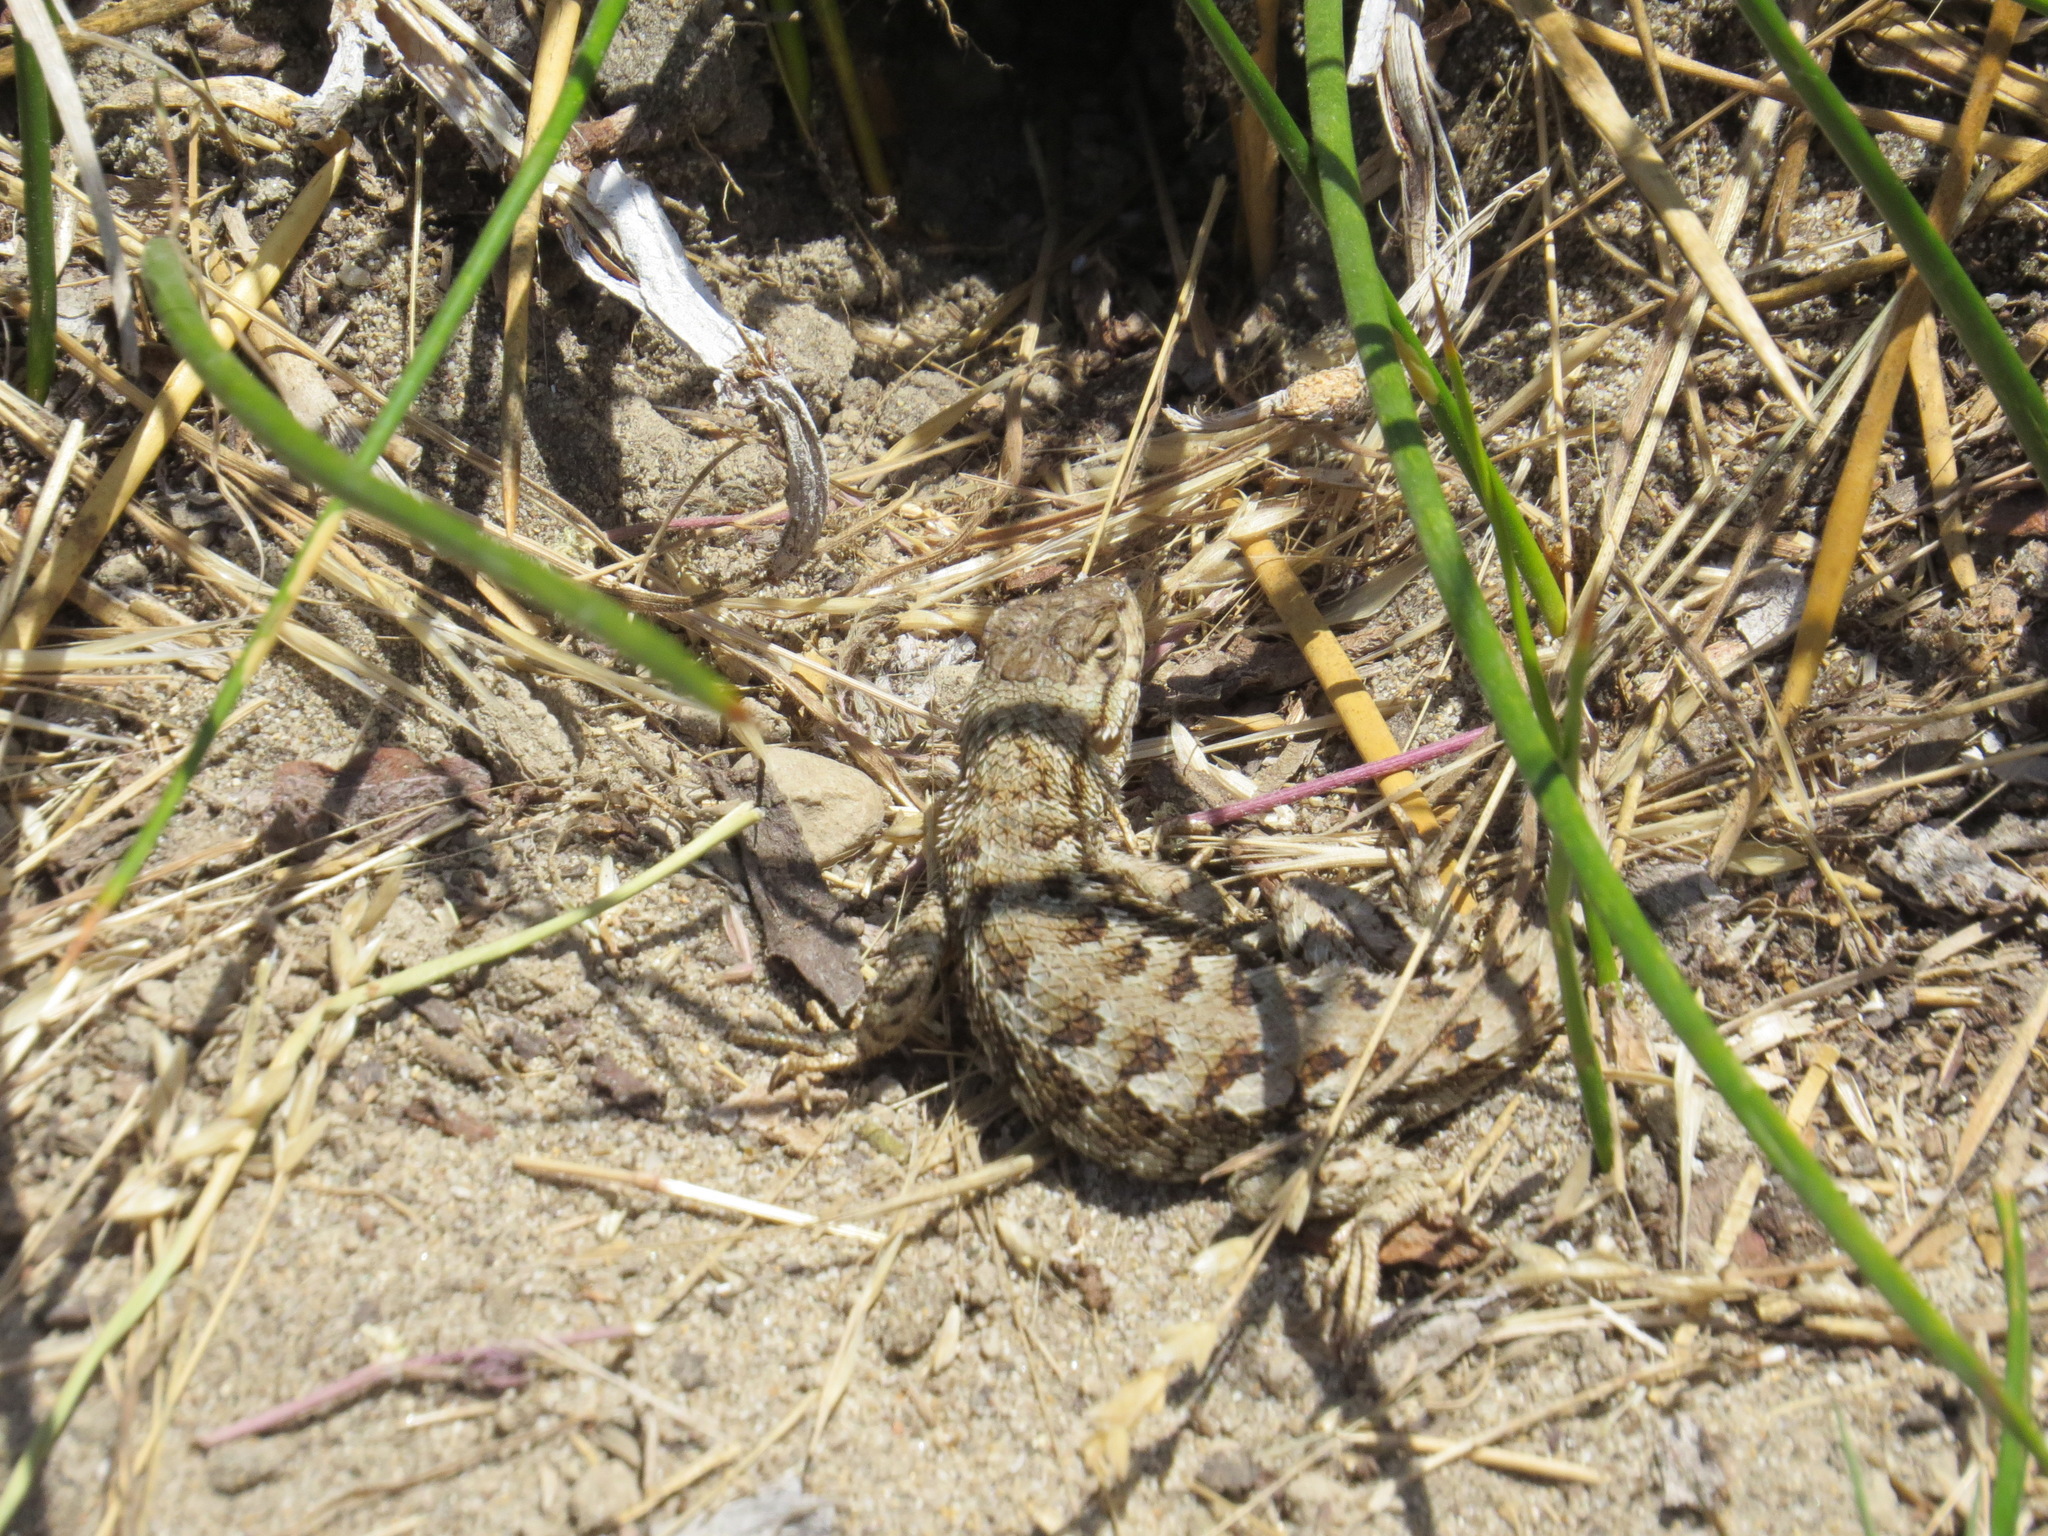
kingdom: Animalia
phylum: Chordata
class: Squamata
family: Phrynosomatidae
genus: Sceloporus
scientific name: Sceloporus occidentalis
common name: Western fence lizard
